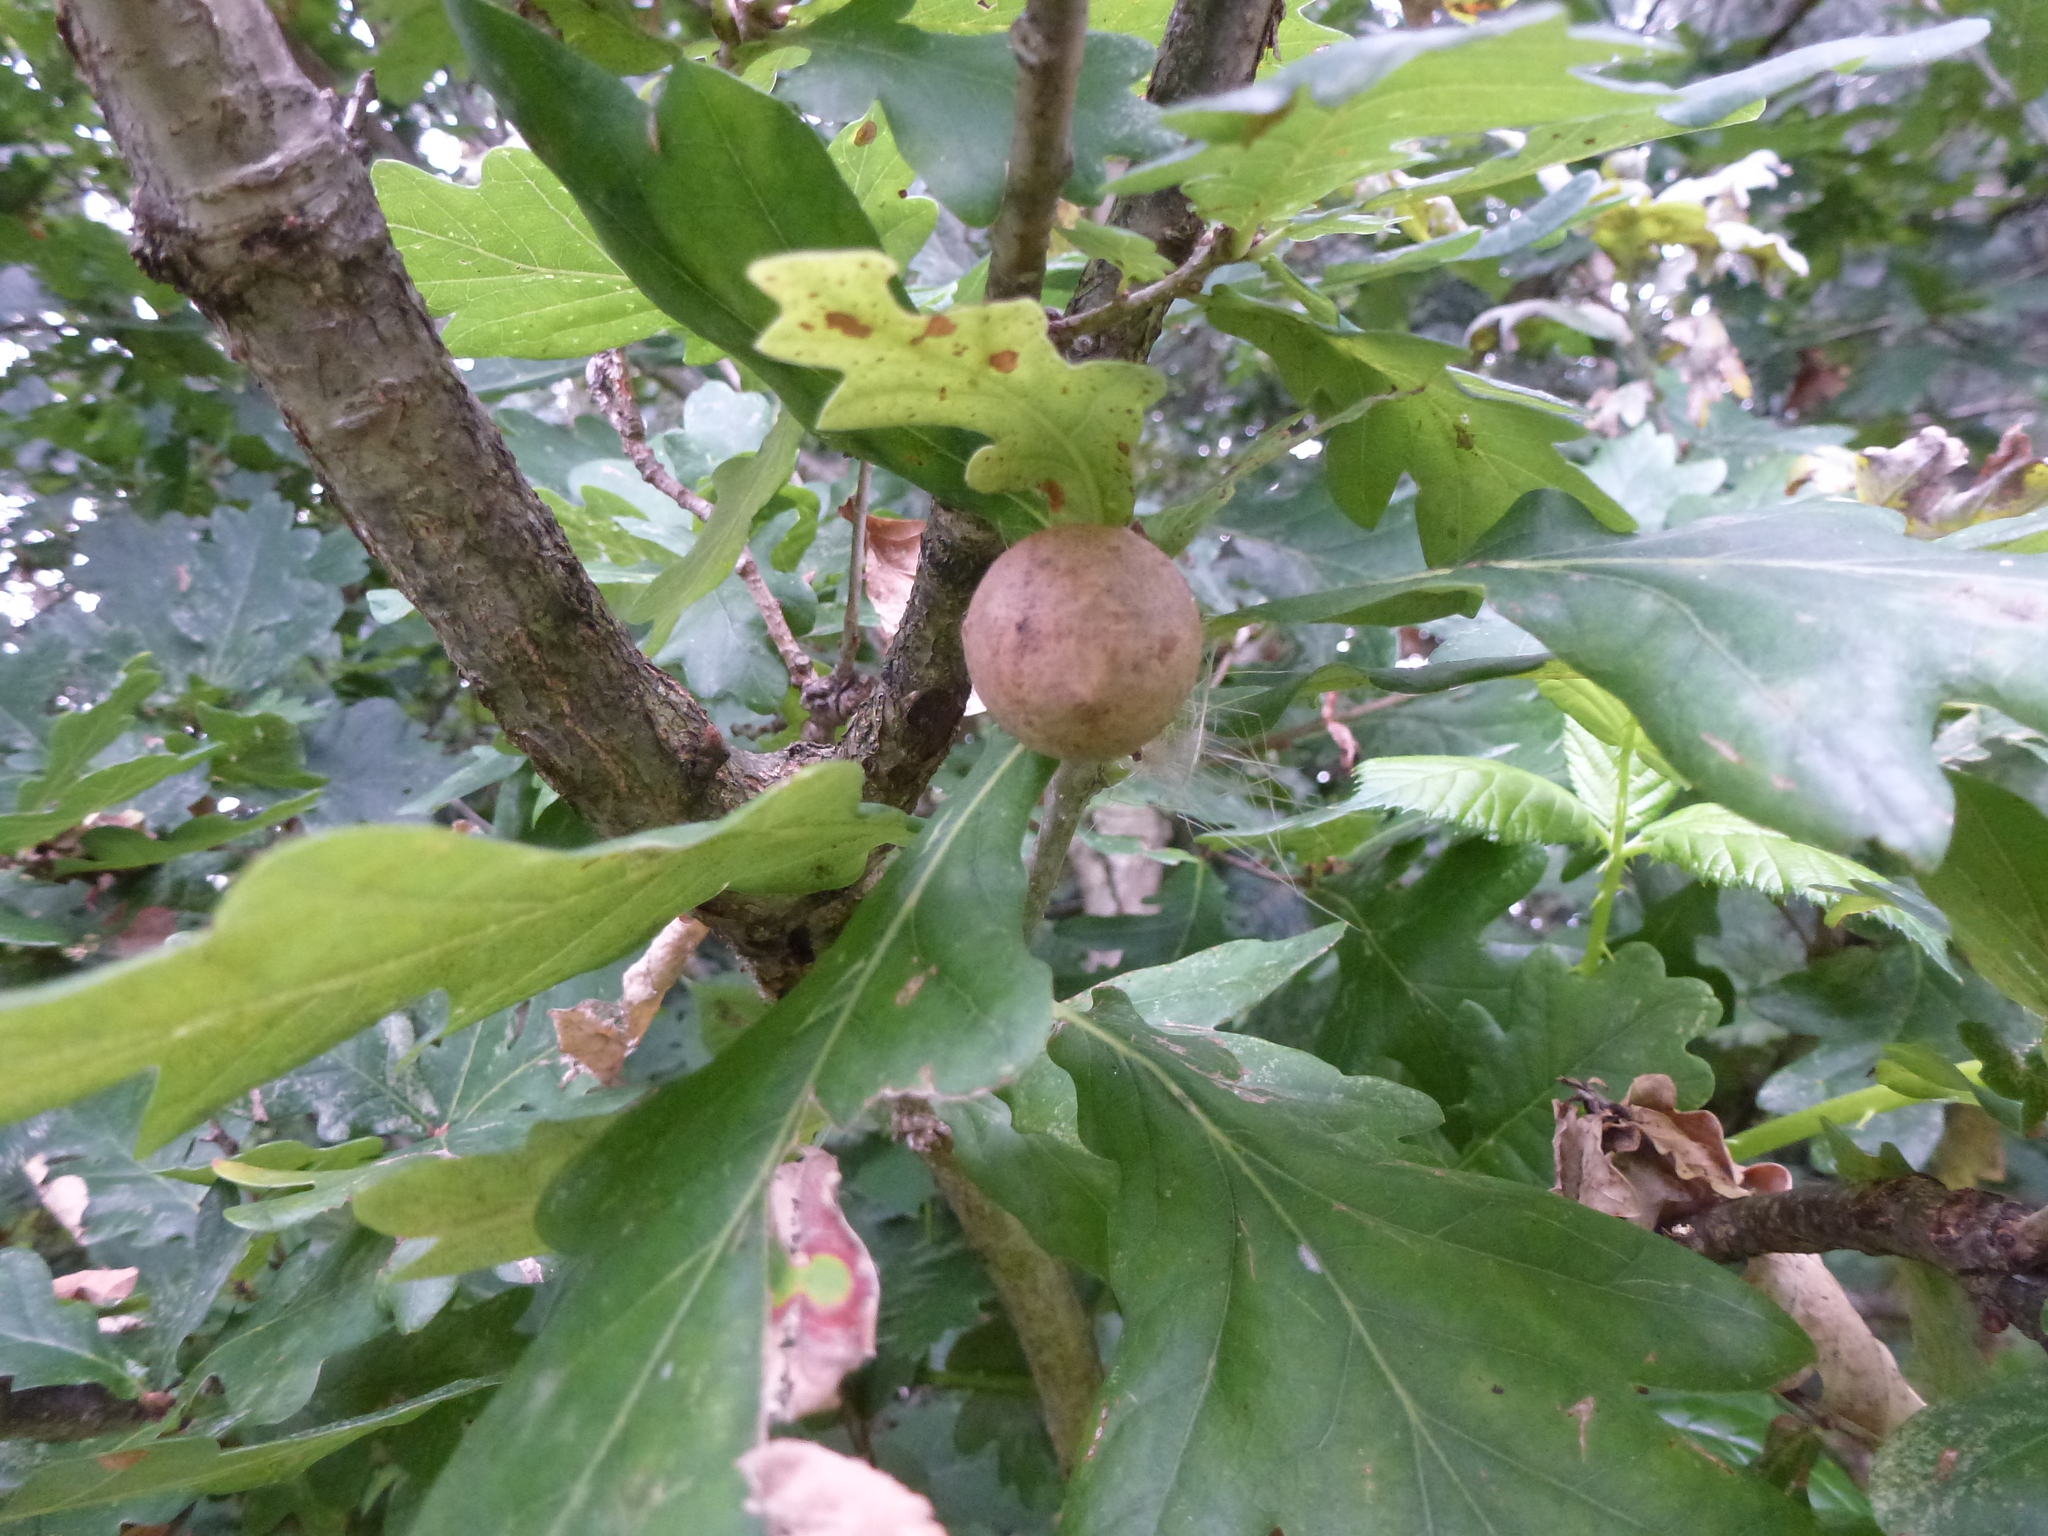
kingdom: Animalia
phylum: Arthropoda
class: Insecta
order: Hymenoptera
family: Cynipidae
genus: Andricus
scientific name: Andricus kollari
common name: Marble gall
